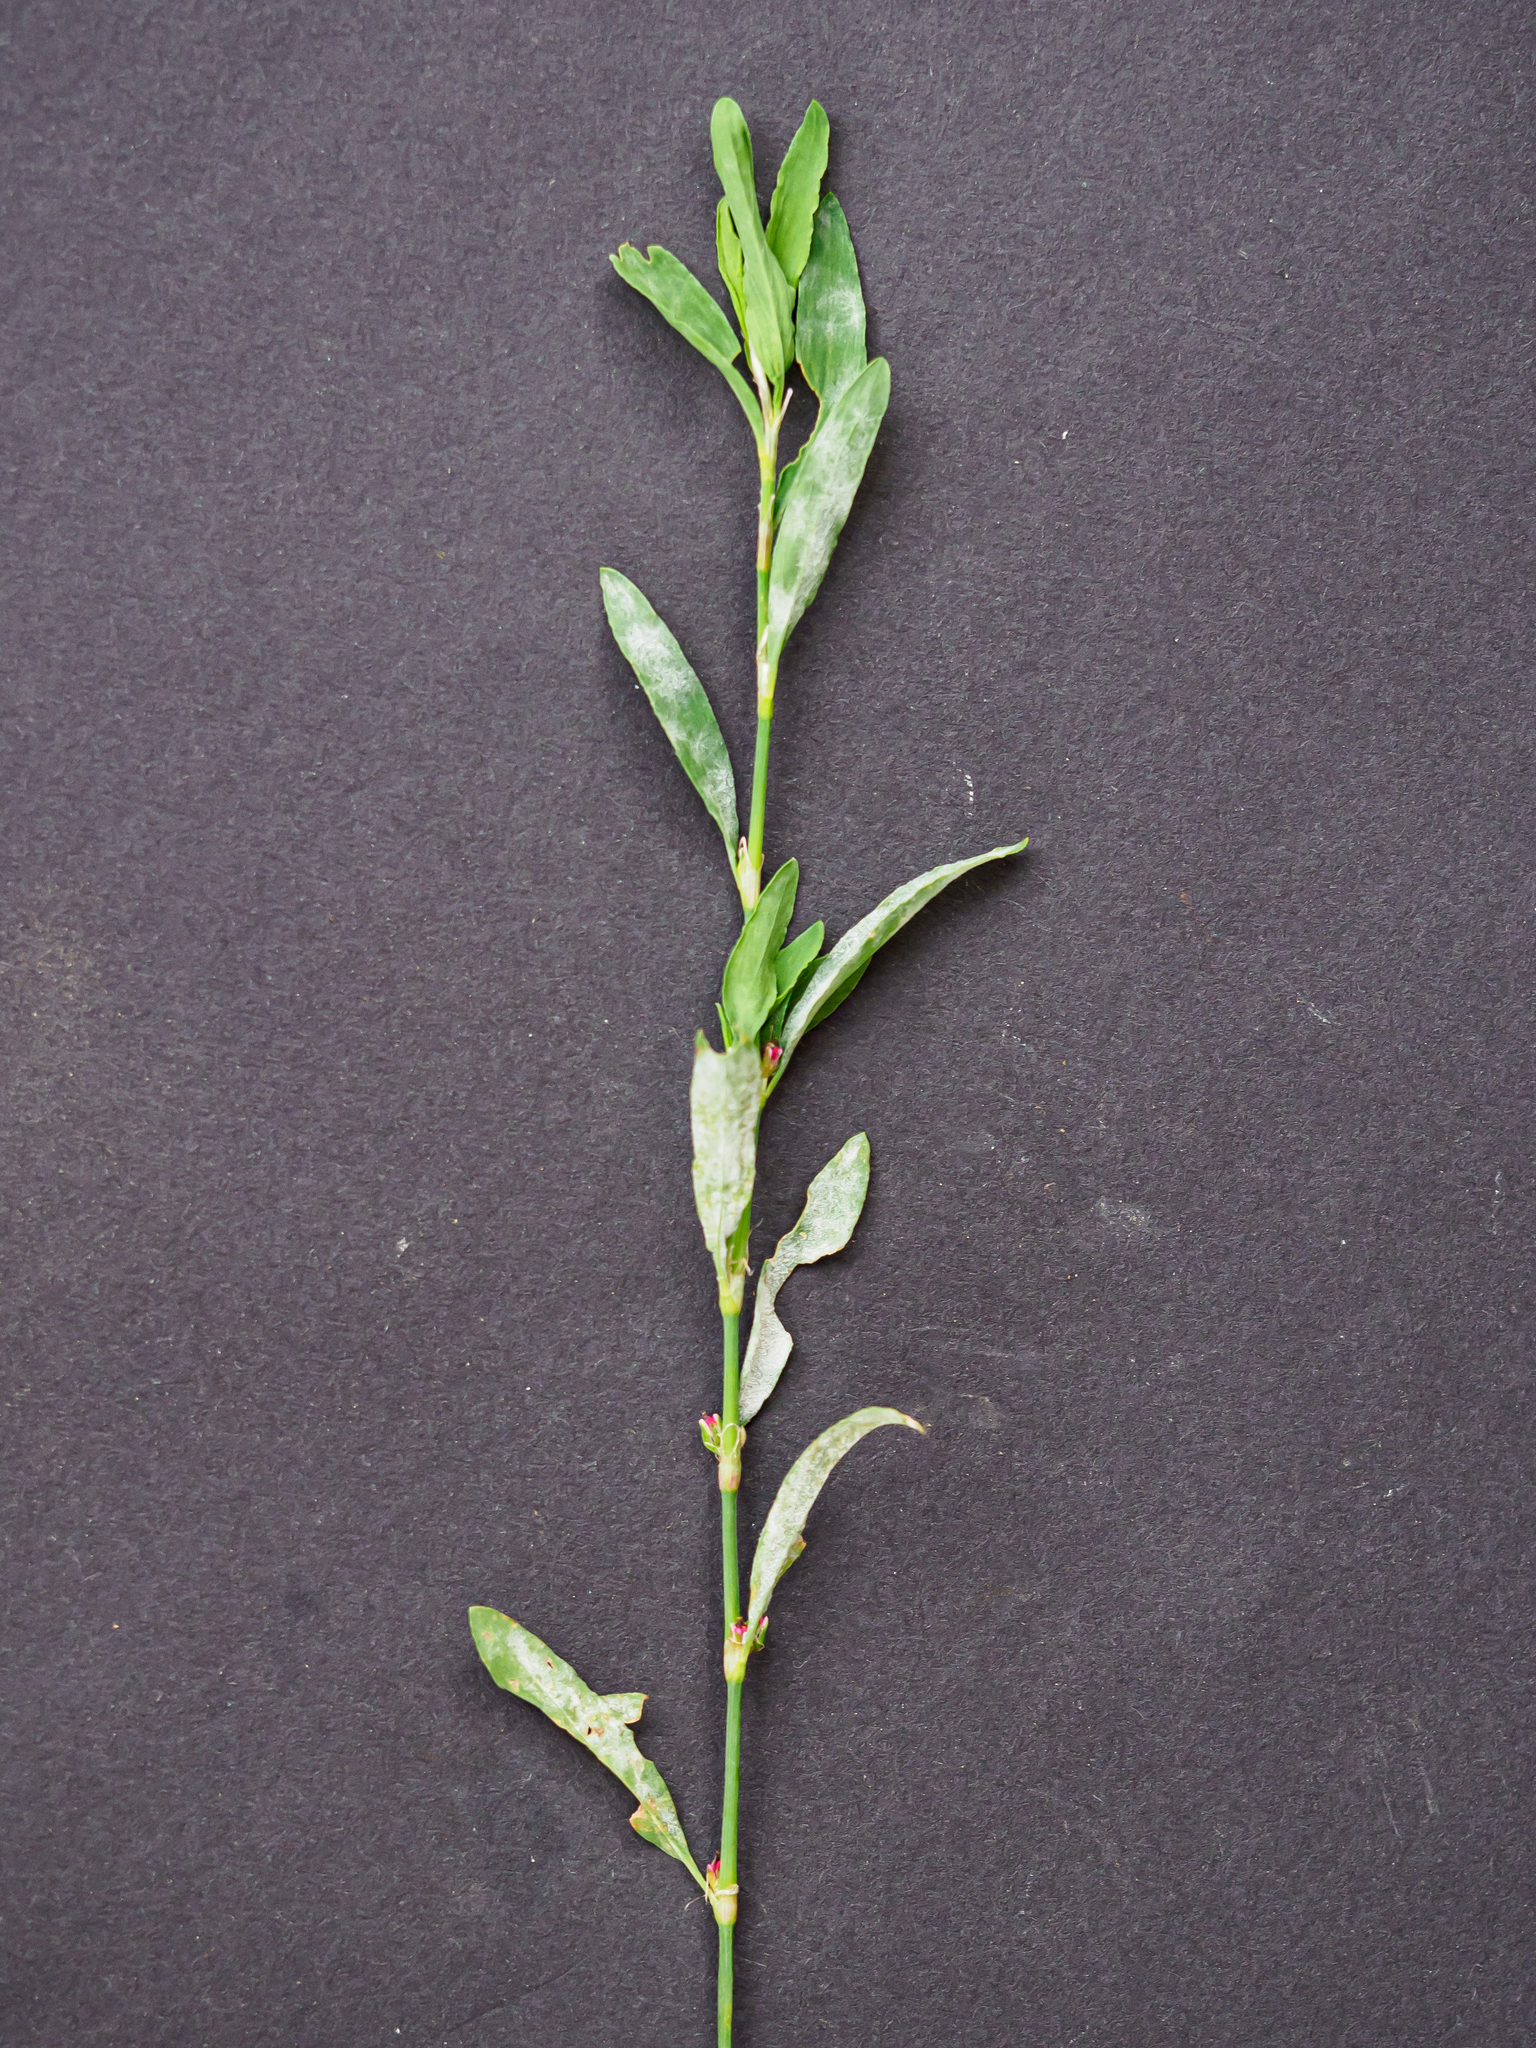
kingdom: Fungi
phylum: Ascomycota
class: Leotiomycetes
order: Helotiales
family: Erysiphaceae
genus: Erysiphe
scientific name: Erysiphe polygoni
